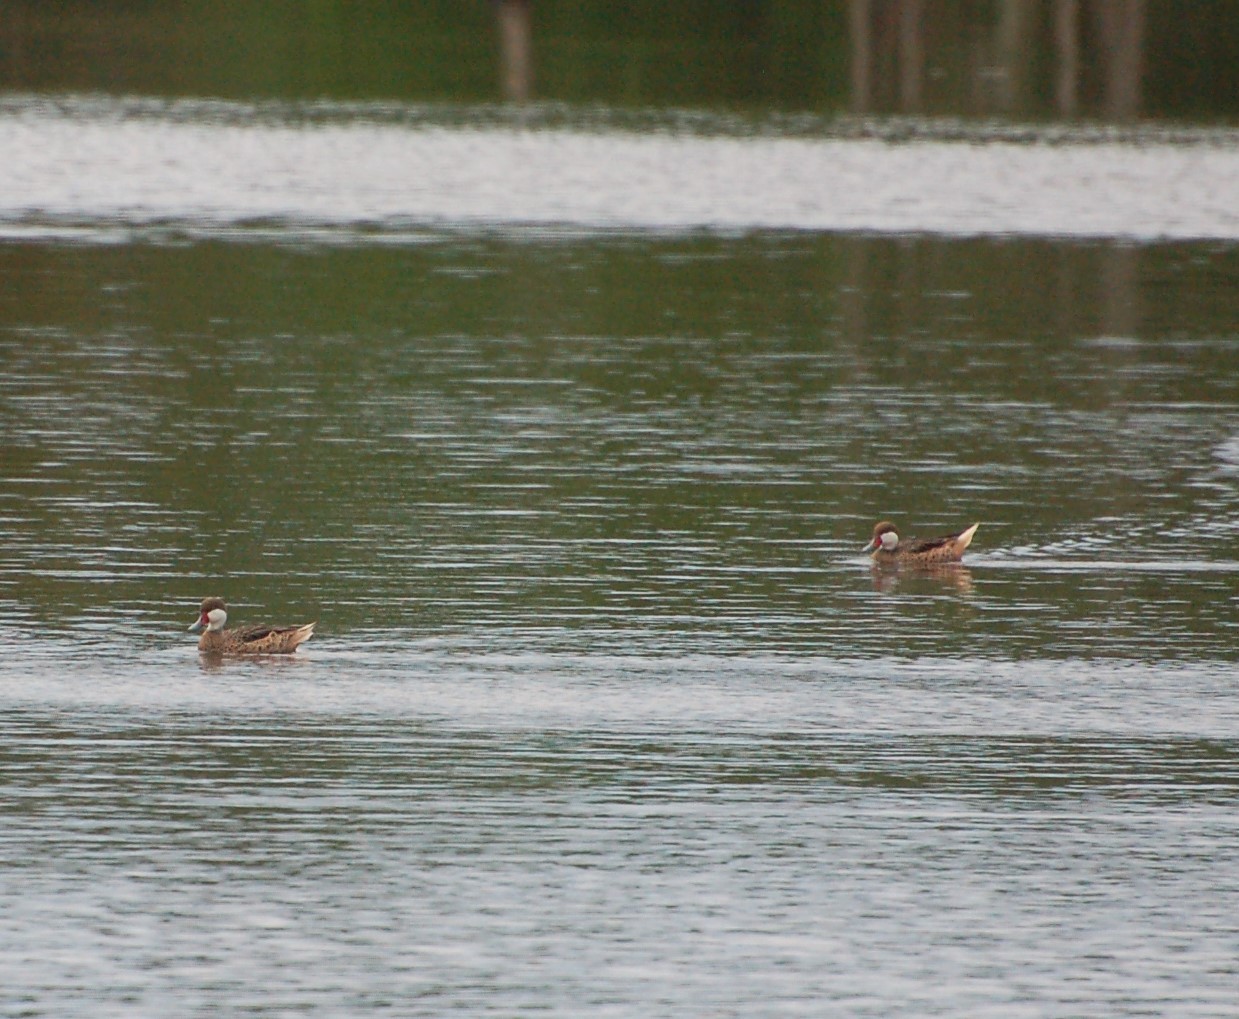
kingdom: Animalia
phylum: Chordata
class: Aves
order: Anseriformes
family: Anatidae
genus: Anas
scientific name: Anas bahamensis
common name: White-cheeked pintail
